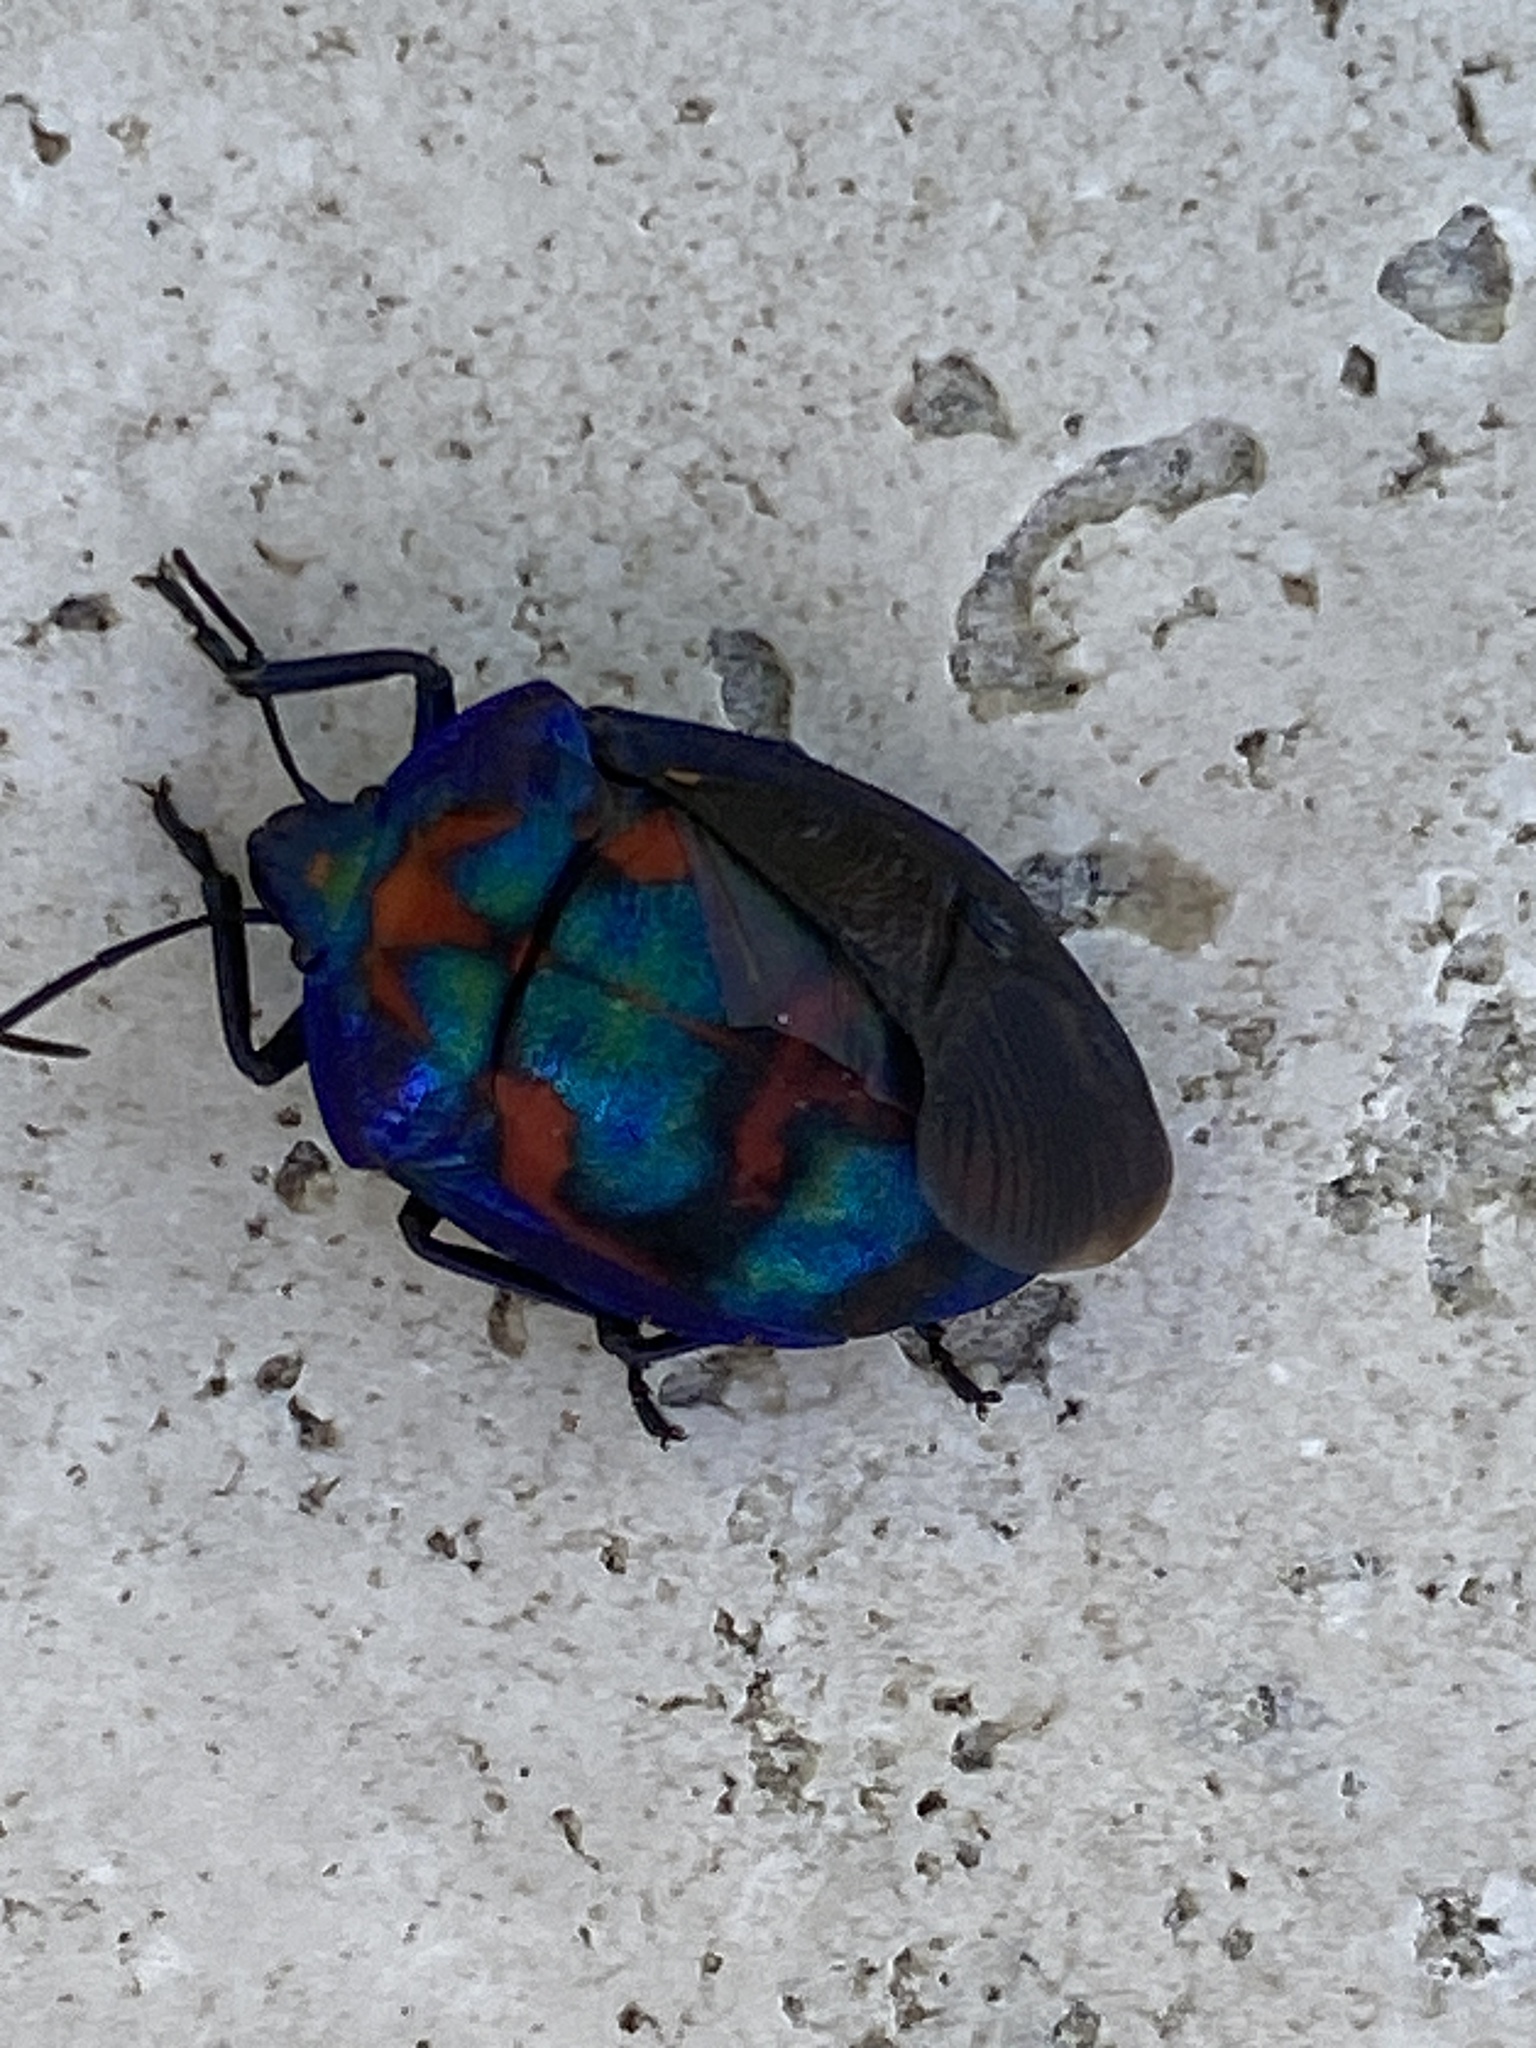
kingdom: Animalia
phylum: Arthropoda
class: Insecta
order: Hemiptera
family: Scutelleridae
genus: Tectocoris
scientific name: Tectocoris diophthalmus
